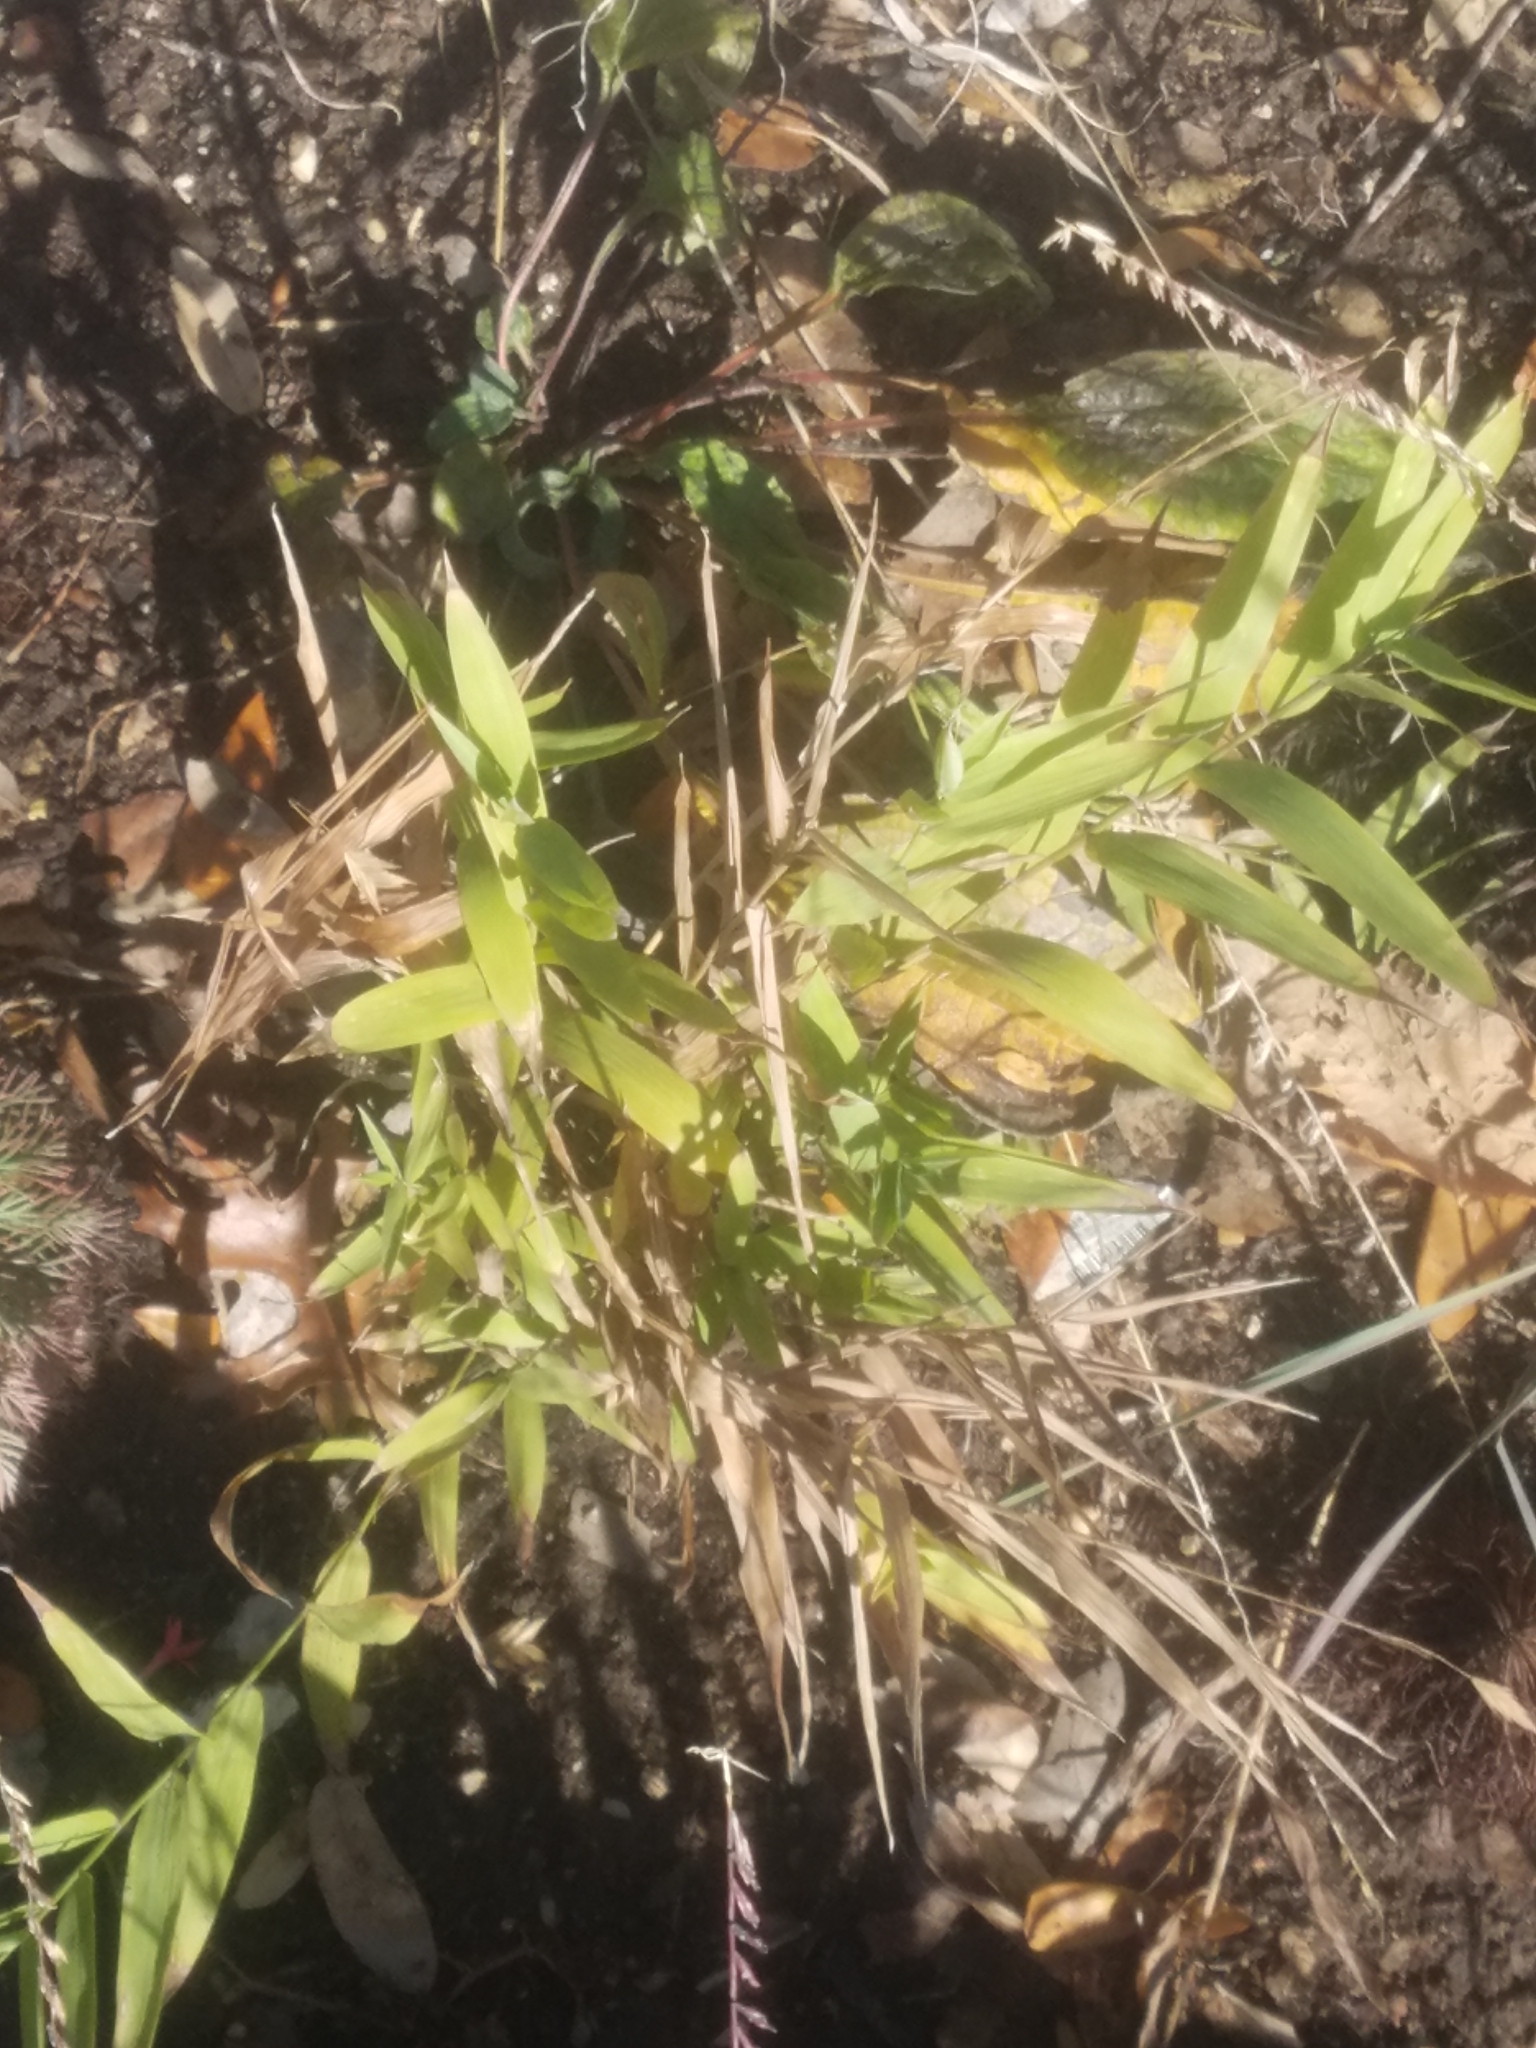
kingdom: Plantae
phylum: Tracheophyta
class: Liliopsida
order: Poales
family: Poaceae
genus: Chasmanthium
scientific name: Chasmanthium latifolium
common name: Broad-leaved chasmanthium
